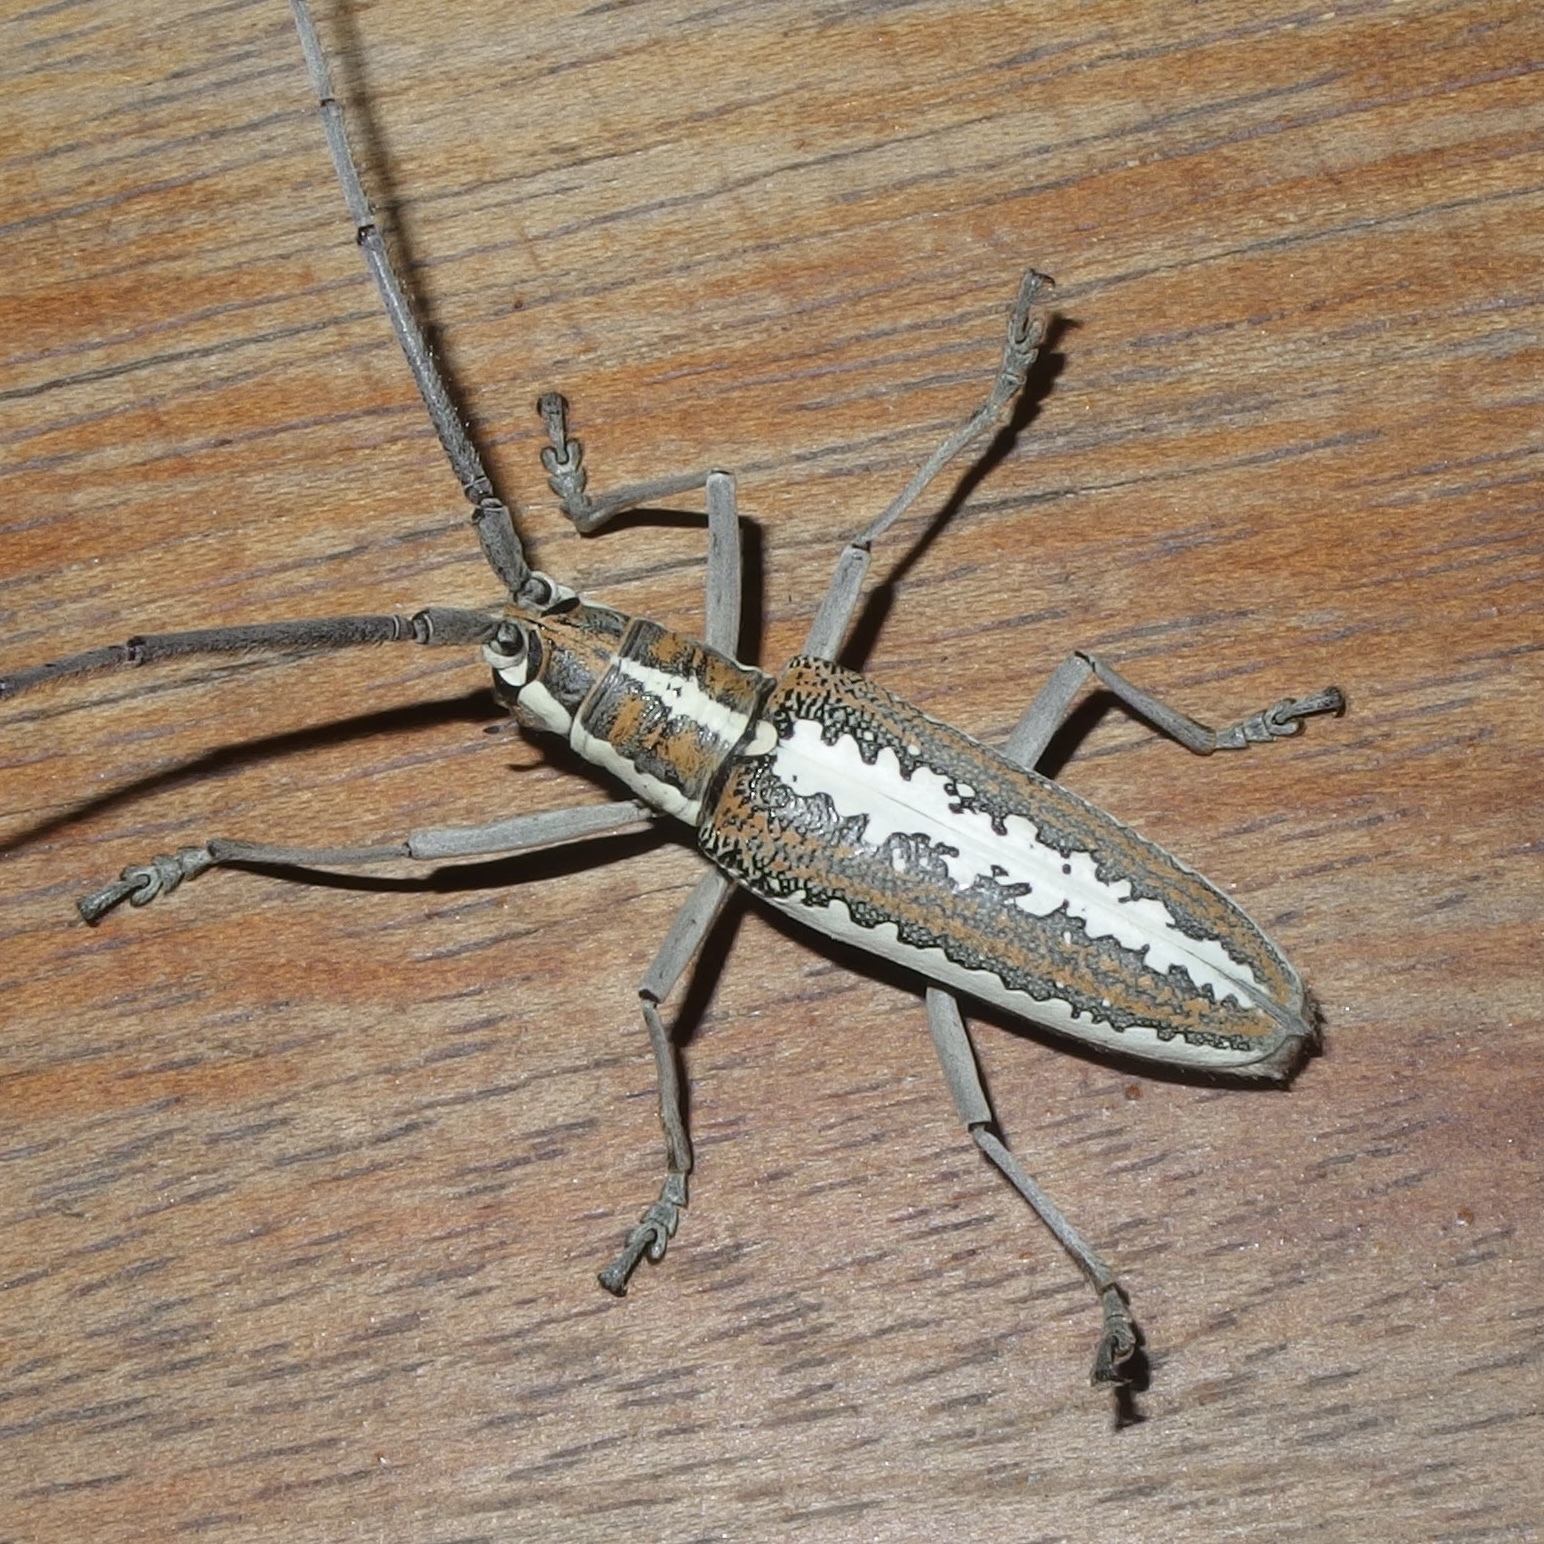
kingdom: Animalia
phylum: Arthropoda
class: Insecta
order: Coleoptera
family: Cerambycidae
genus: Neoptychodes
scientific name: Neoptychodes trilineatus
